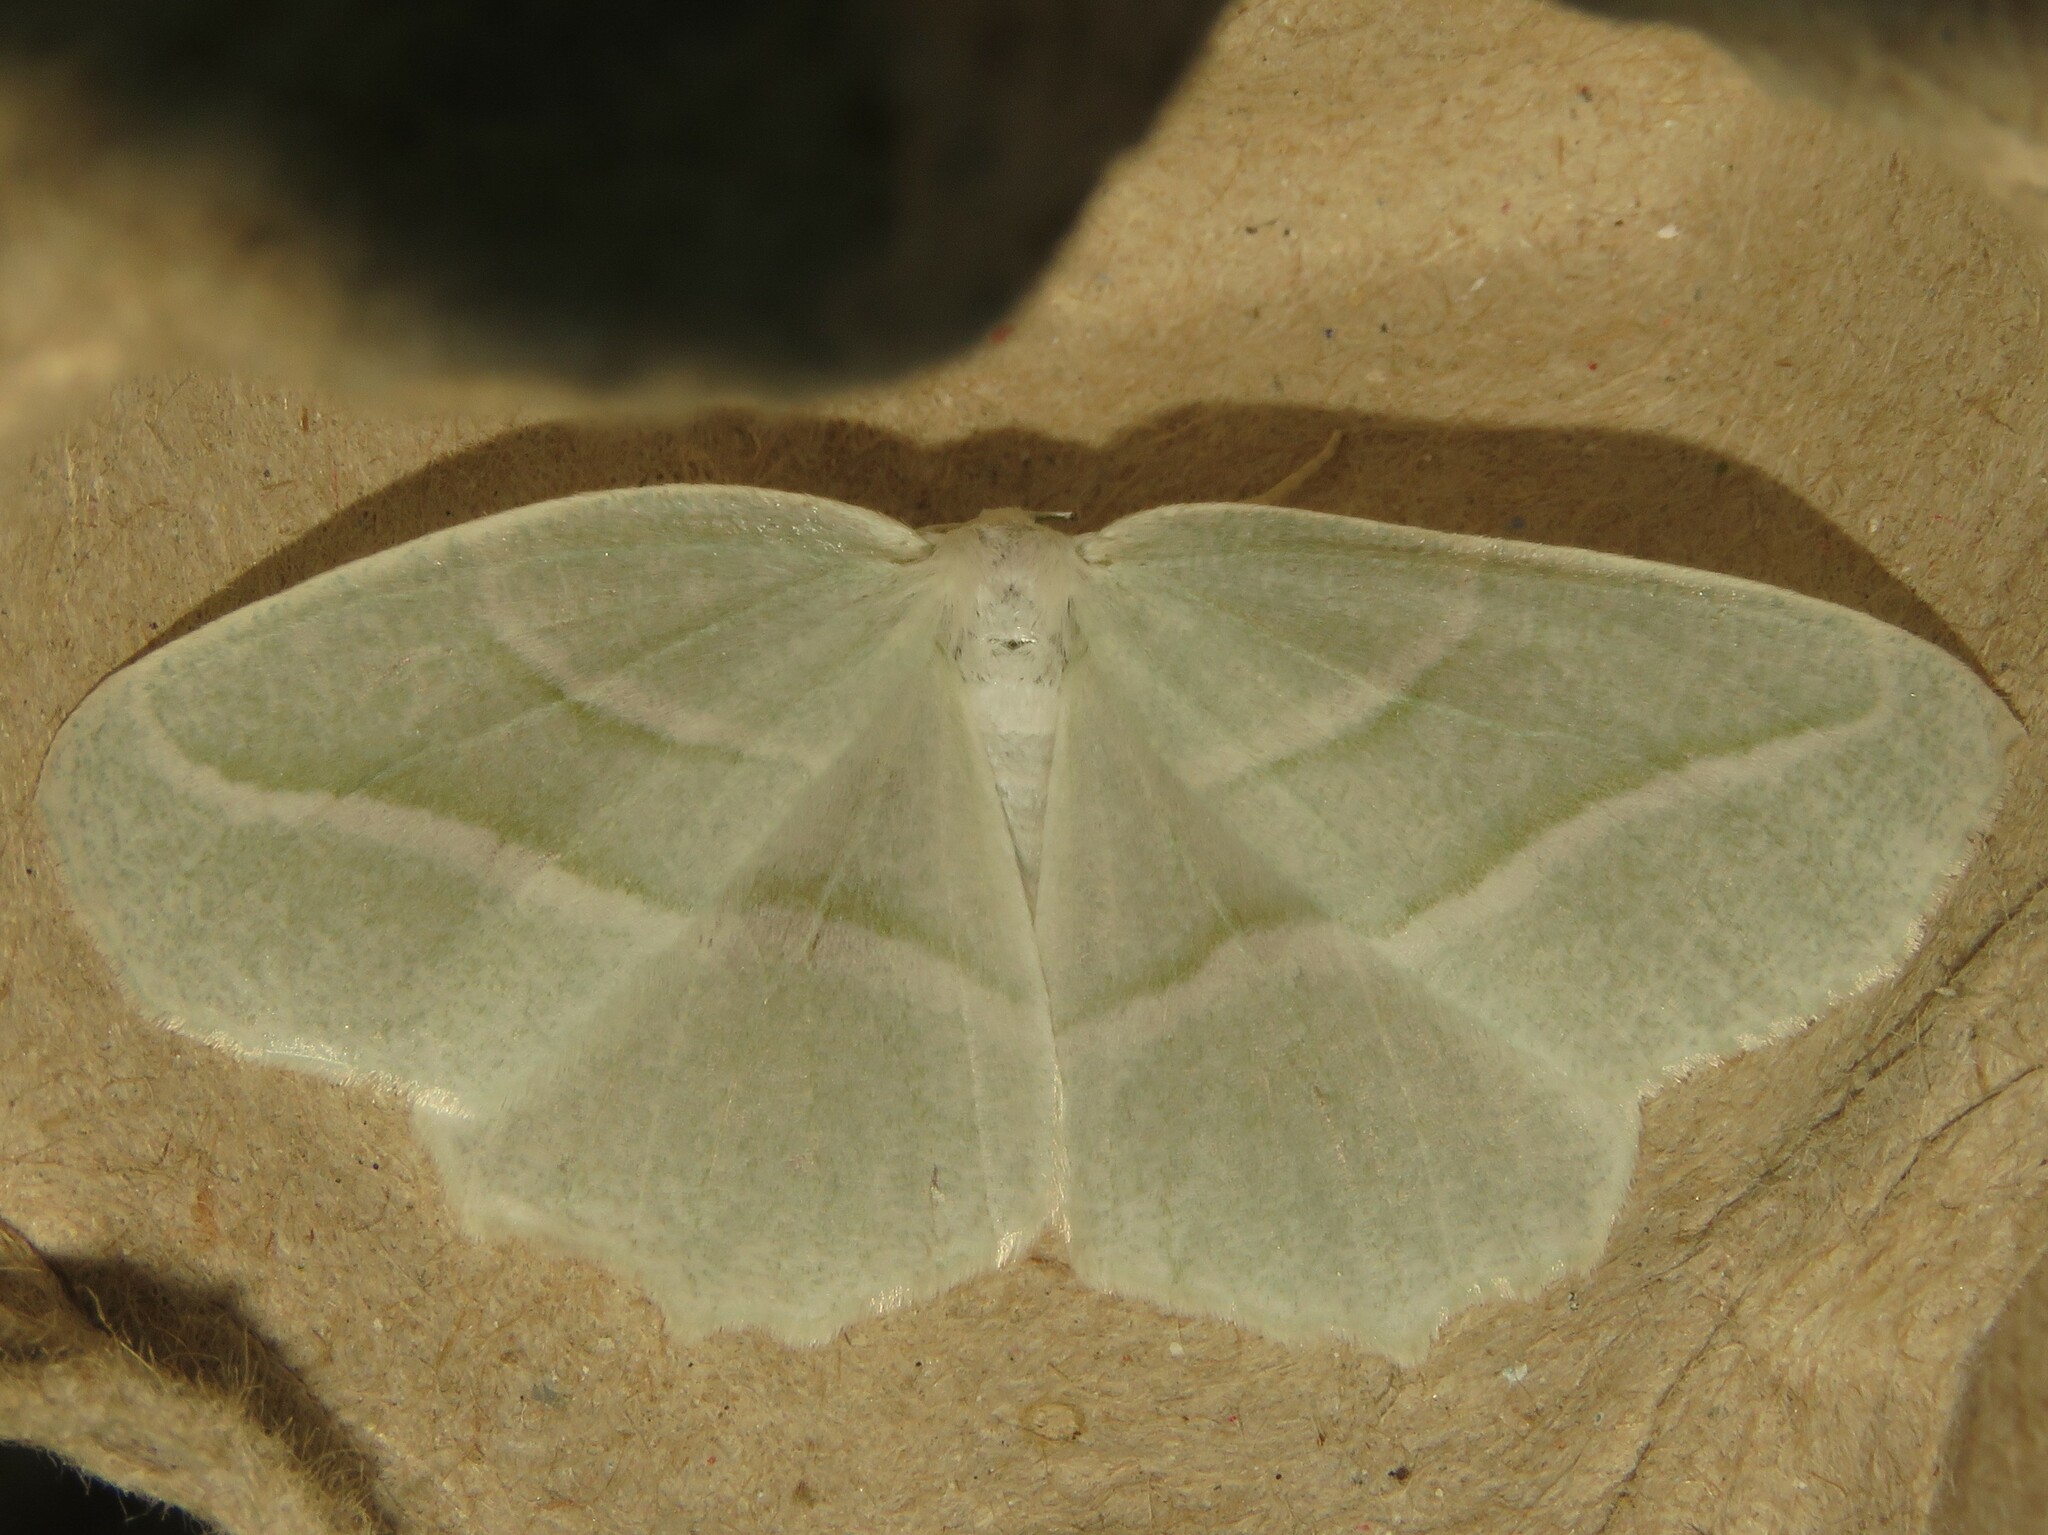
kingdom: Animalia
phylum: Arthropoda
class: Insecta
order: Lepidoptera
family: Geometridae
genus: Campaea
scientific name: Campaea perlata
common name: Fringed looper
